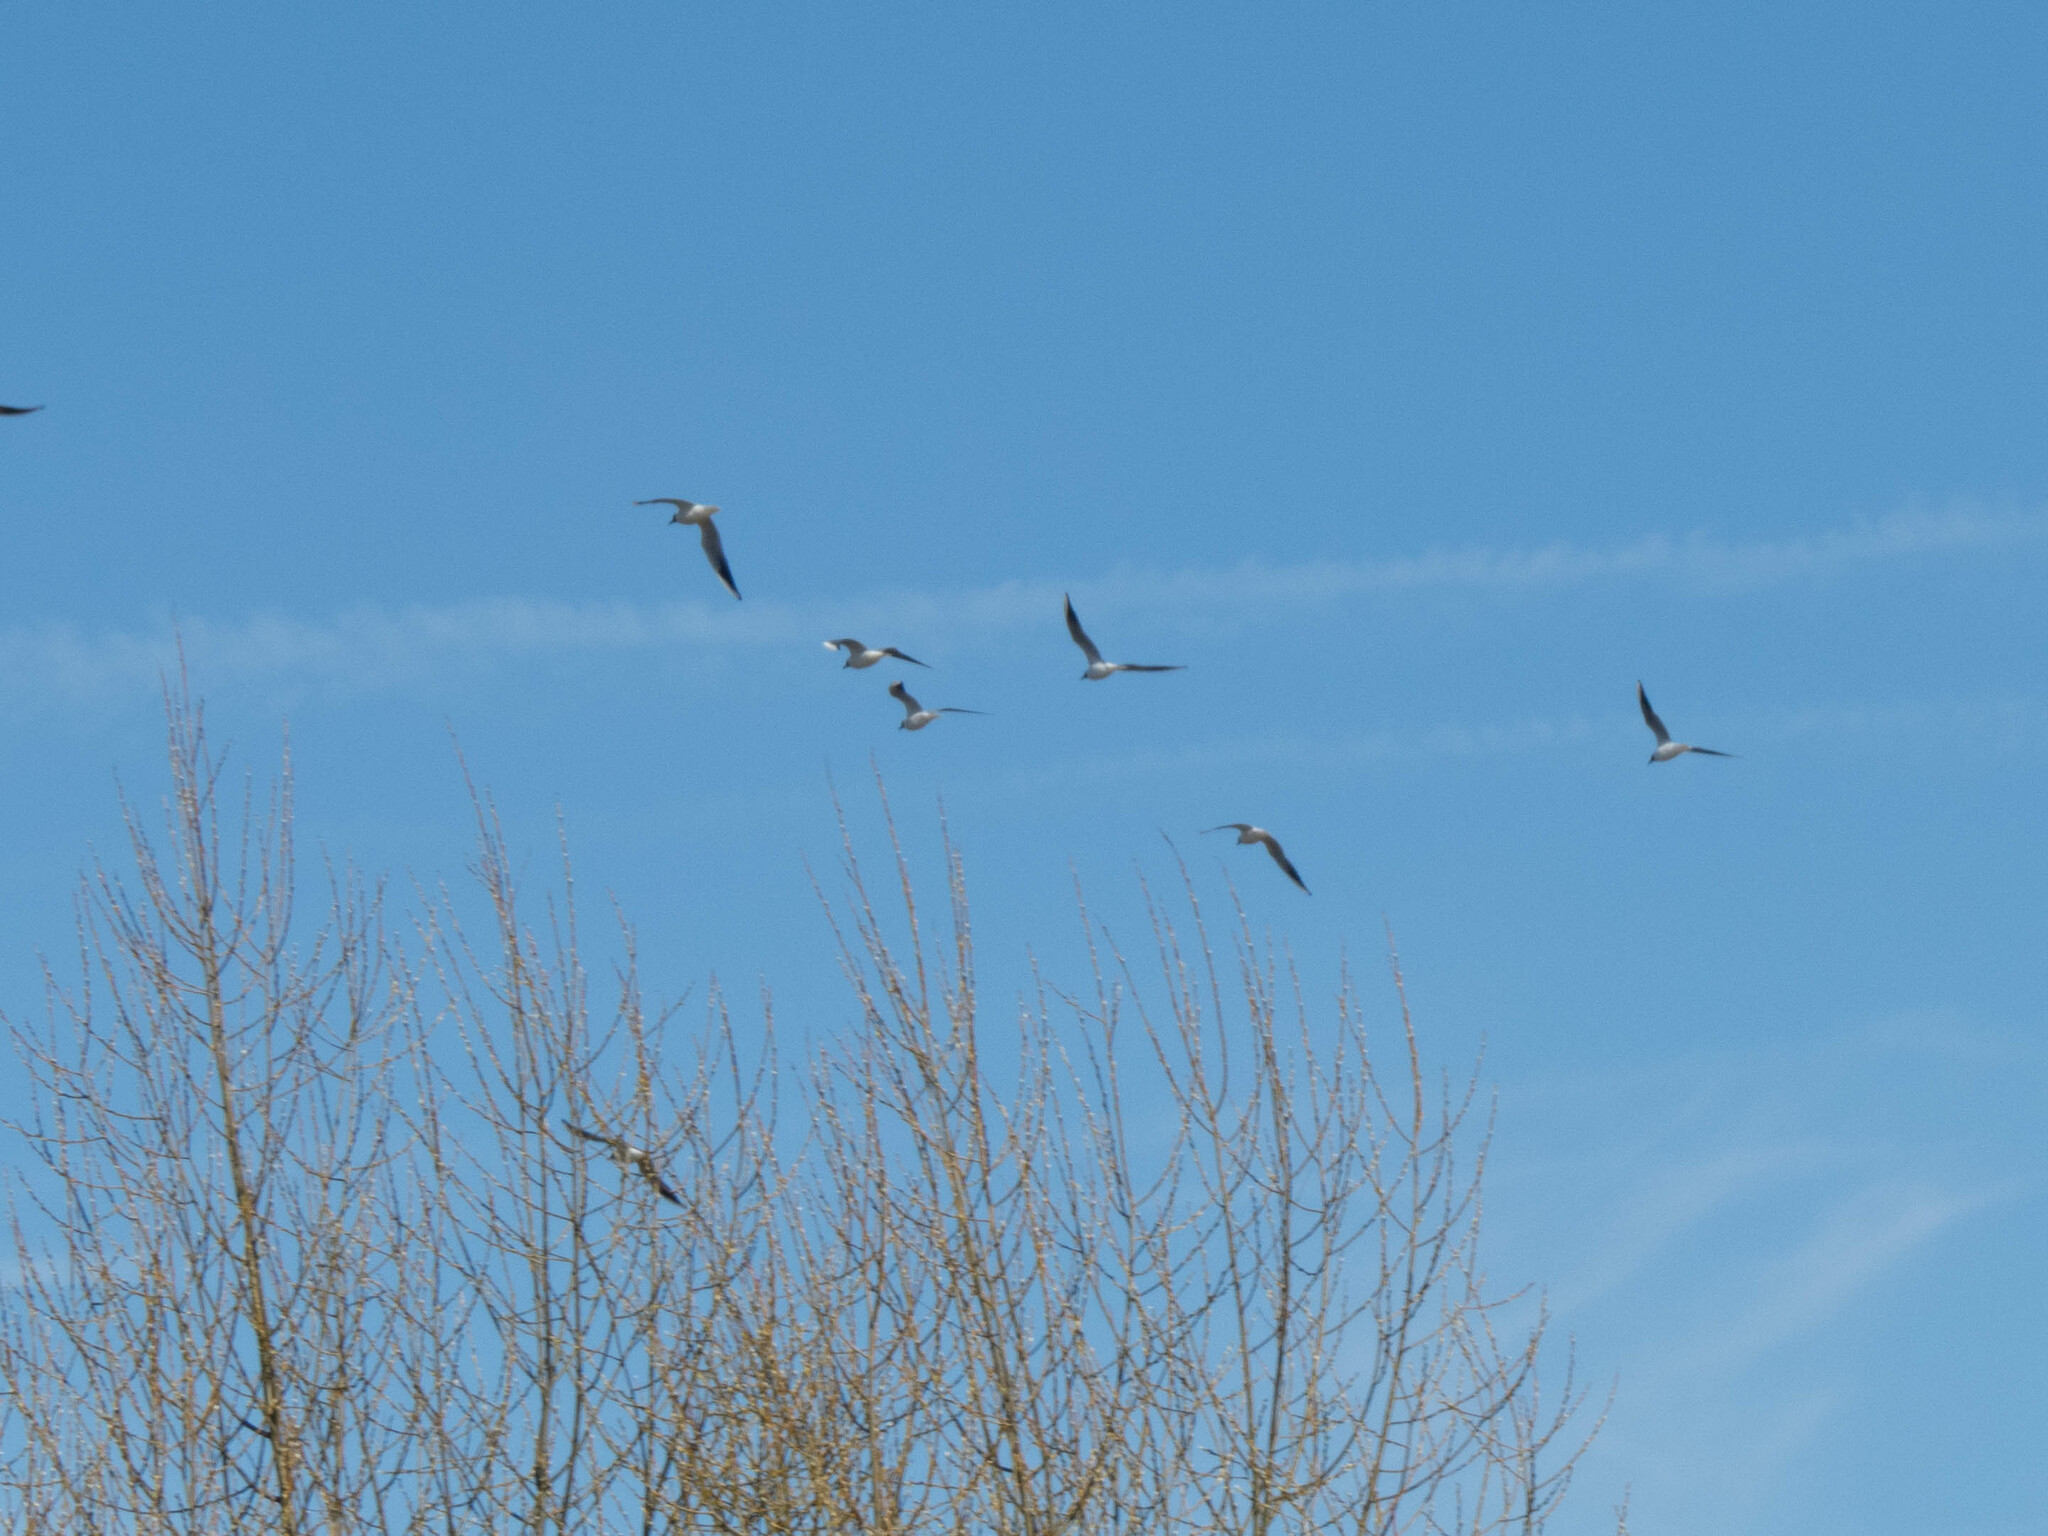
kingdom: Animalia
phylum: Chordata
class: Aves
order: Charadriiformes
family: Laridae
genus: Chroicocephalus
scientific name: Chroicocephalus ridibundus
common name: Black-headed gull
